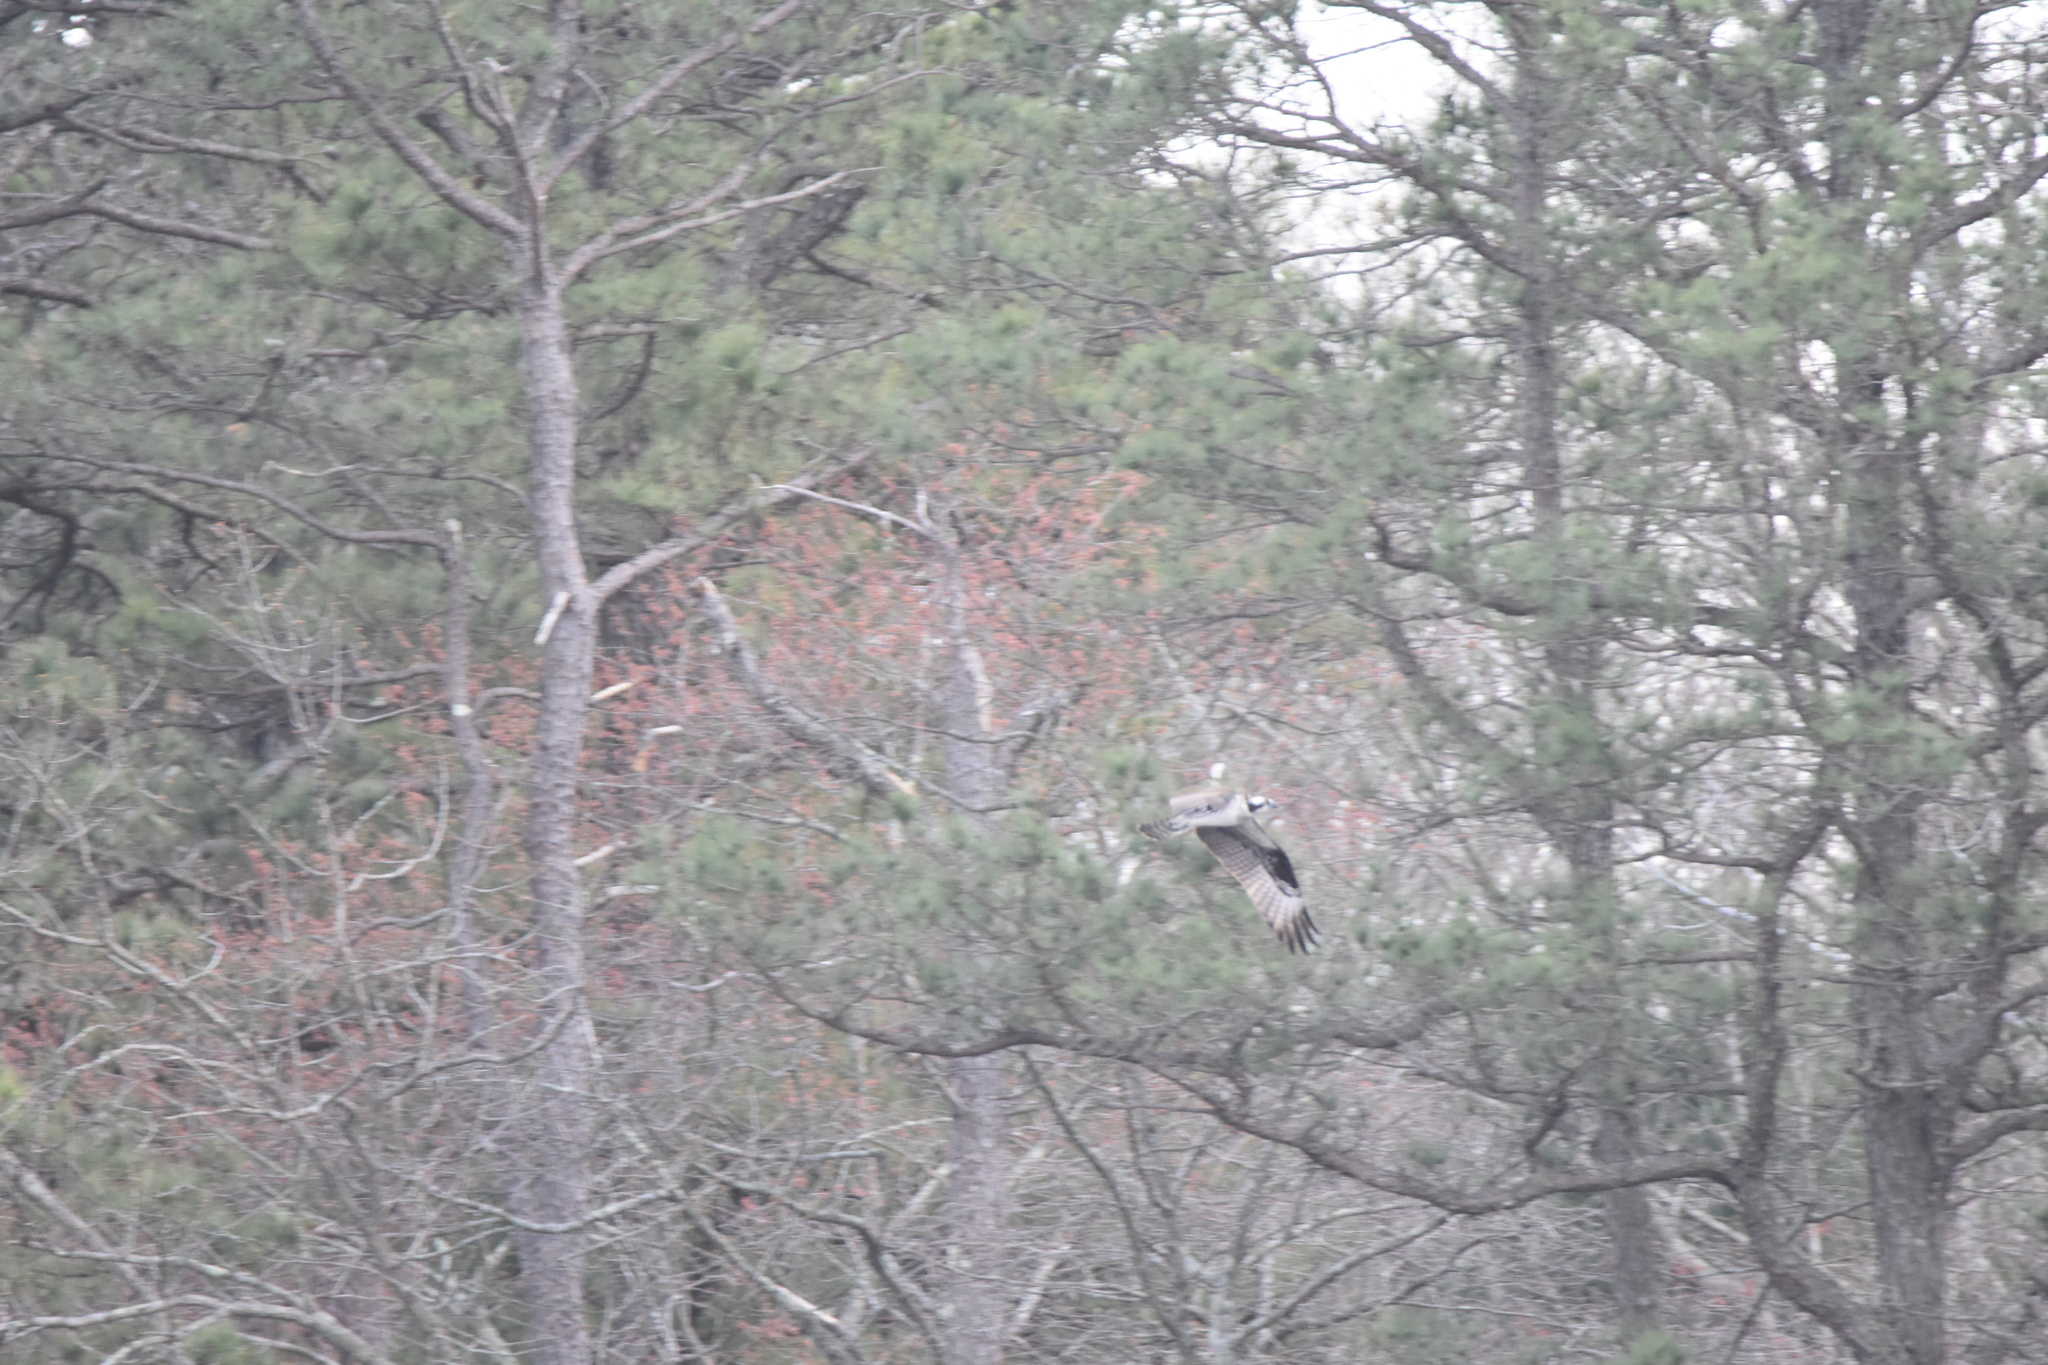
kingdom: Animalia
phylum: Chordata
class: Aves
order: Accipitriformes
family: Pandionidae
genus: Pandion
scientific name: Pandion haliaetus
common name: Osprey
